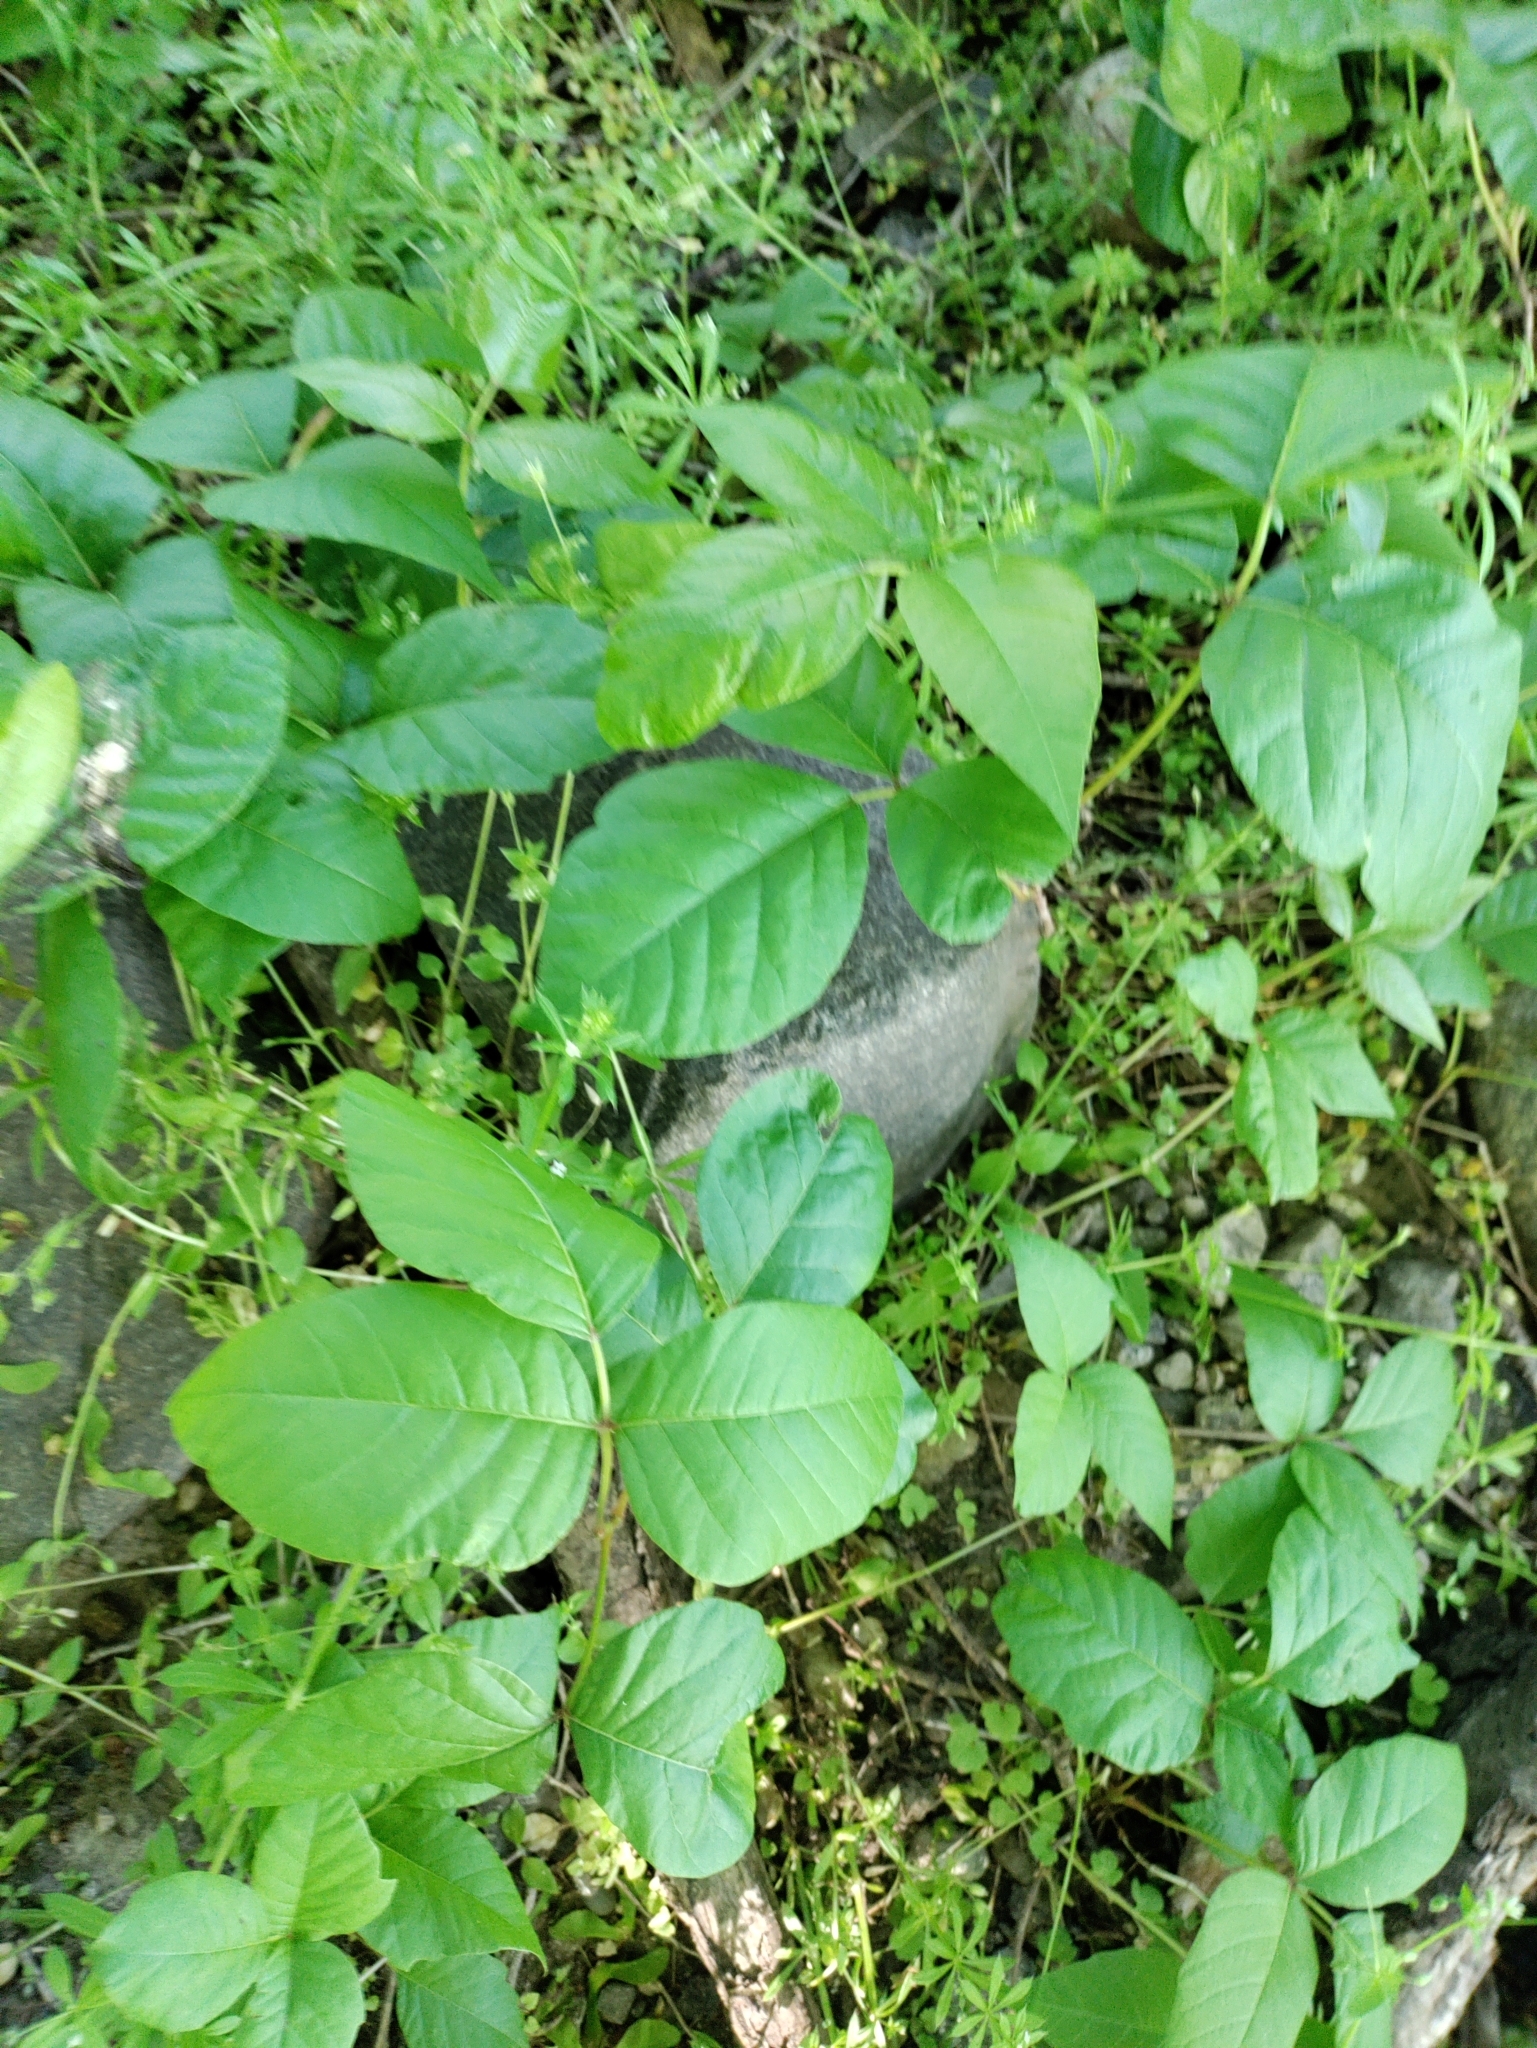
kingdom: Plantae
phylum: Tracheophyta
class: Magnoliopsida
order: Sapindales
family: Anacardiaceae
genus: Toxicodendron
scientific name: Toxicodendron radicans
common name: Poison ivy
